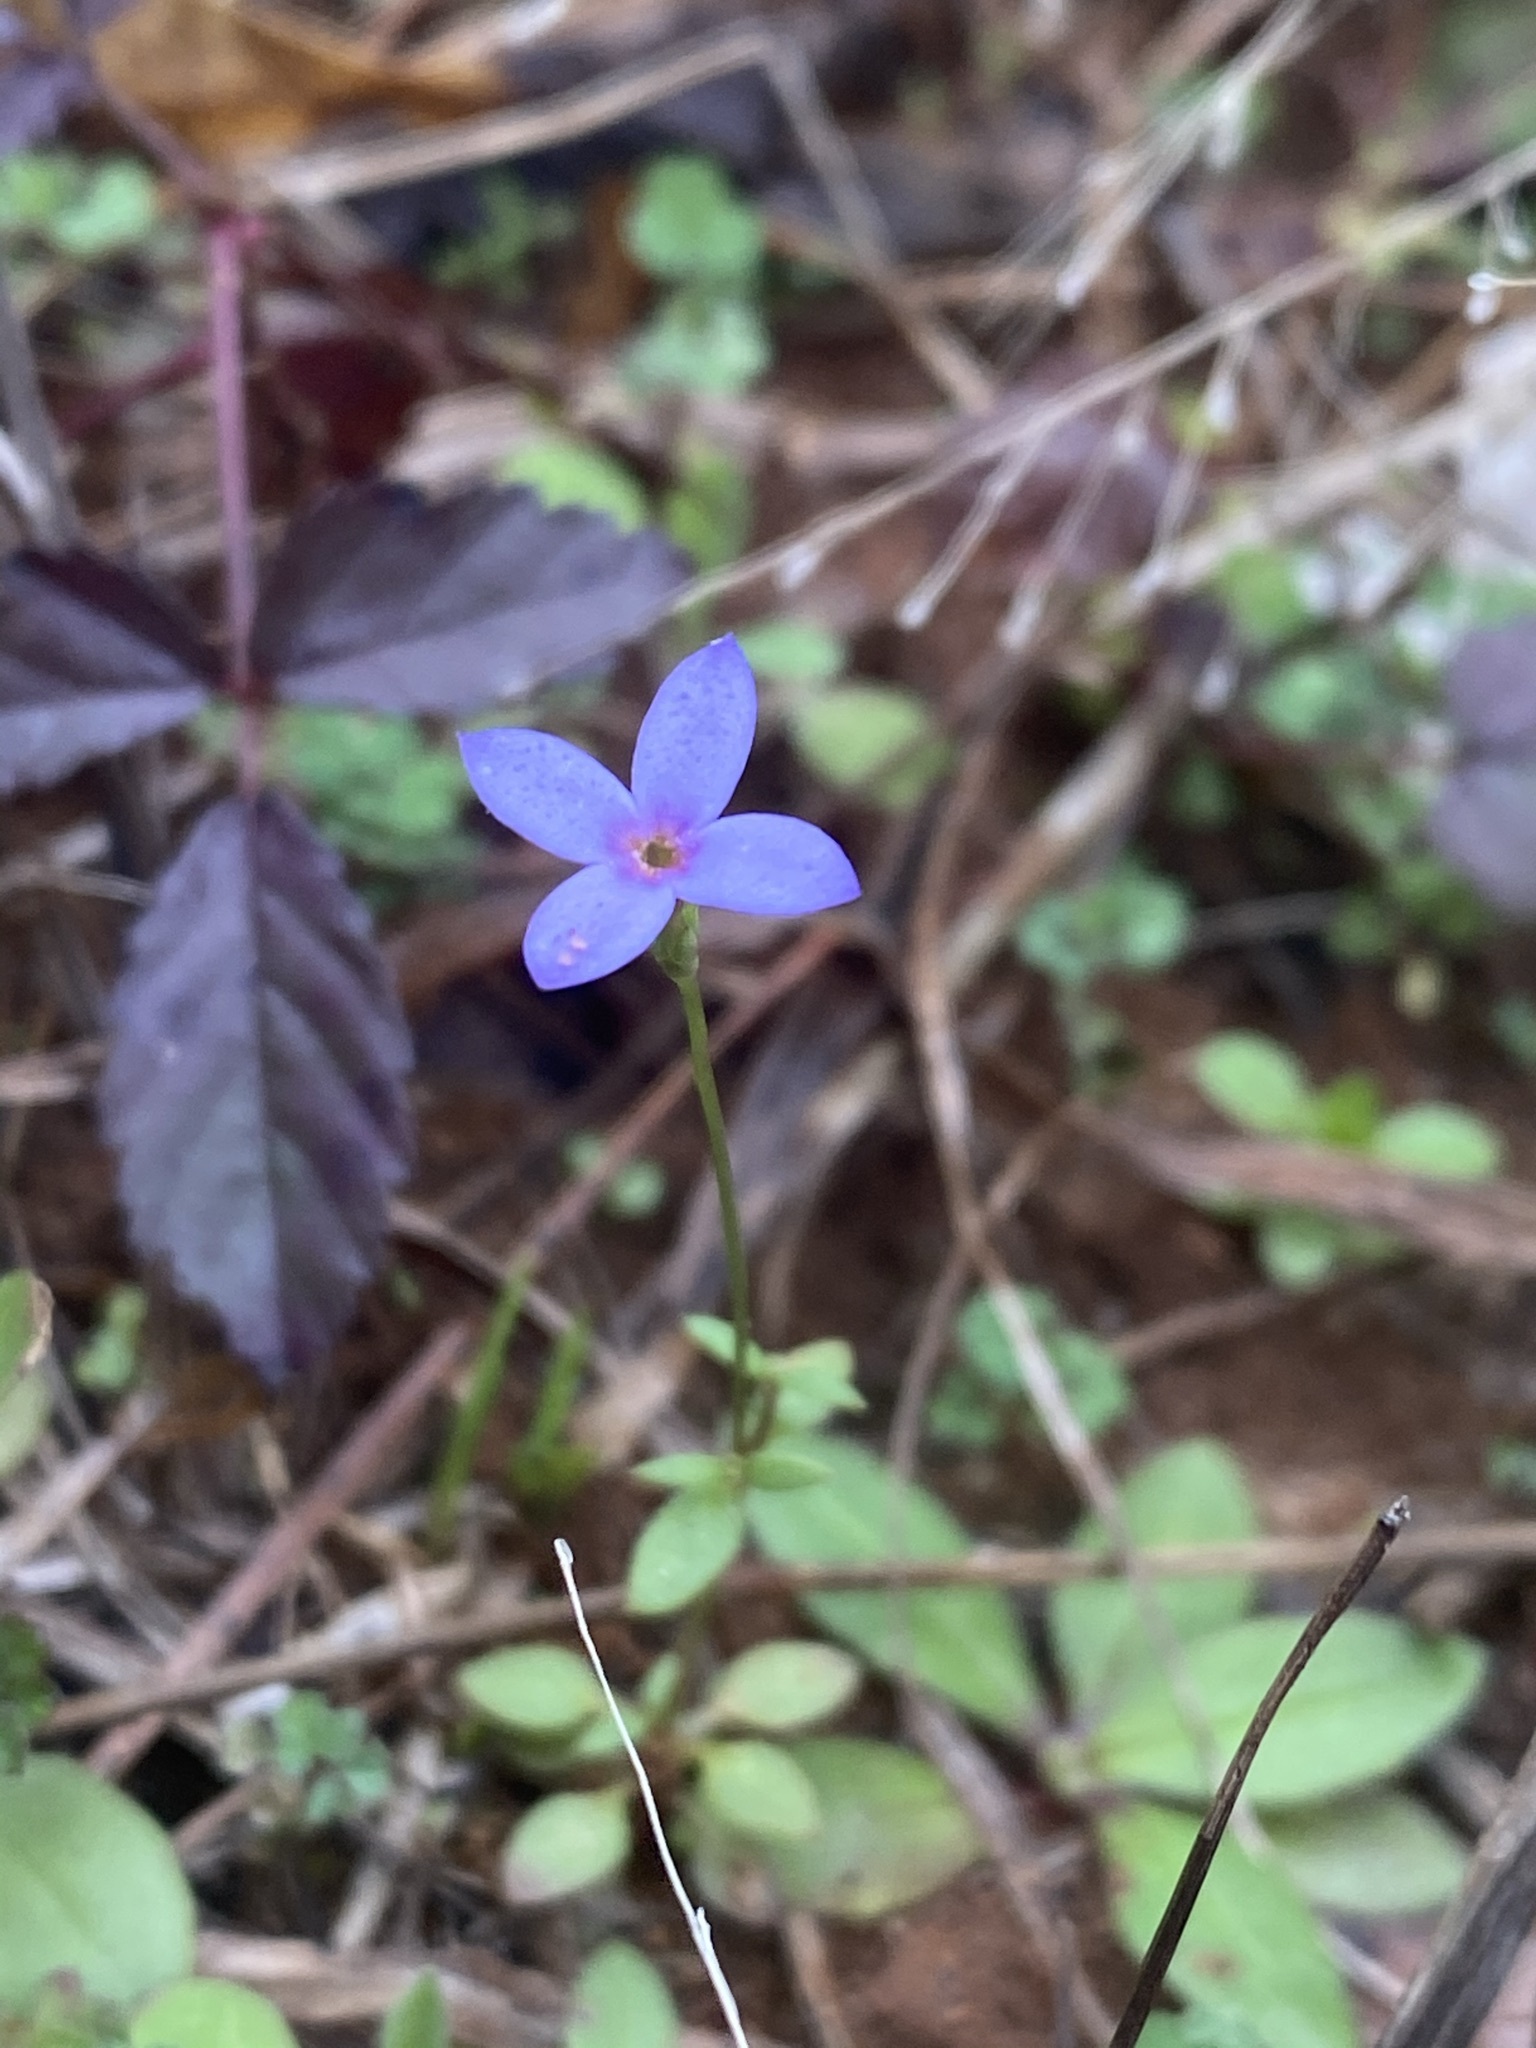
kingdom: Plantae
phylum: Tracheophyta
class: Magnoliopsida
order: Gentianales
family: Rubiaceae
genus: Houstonia
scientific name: Houstonia pusilla
